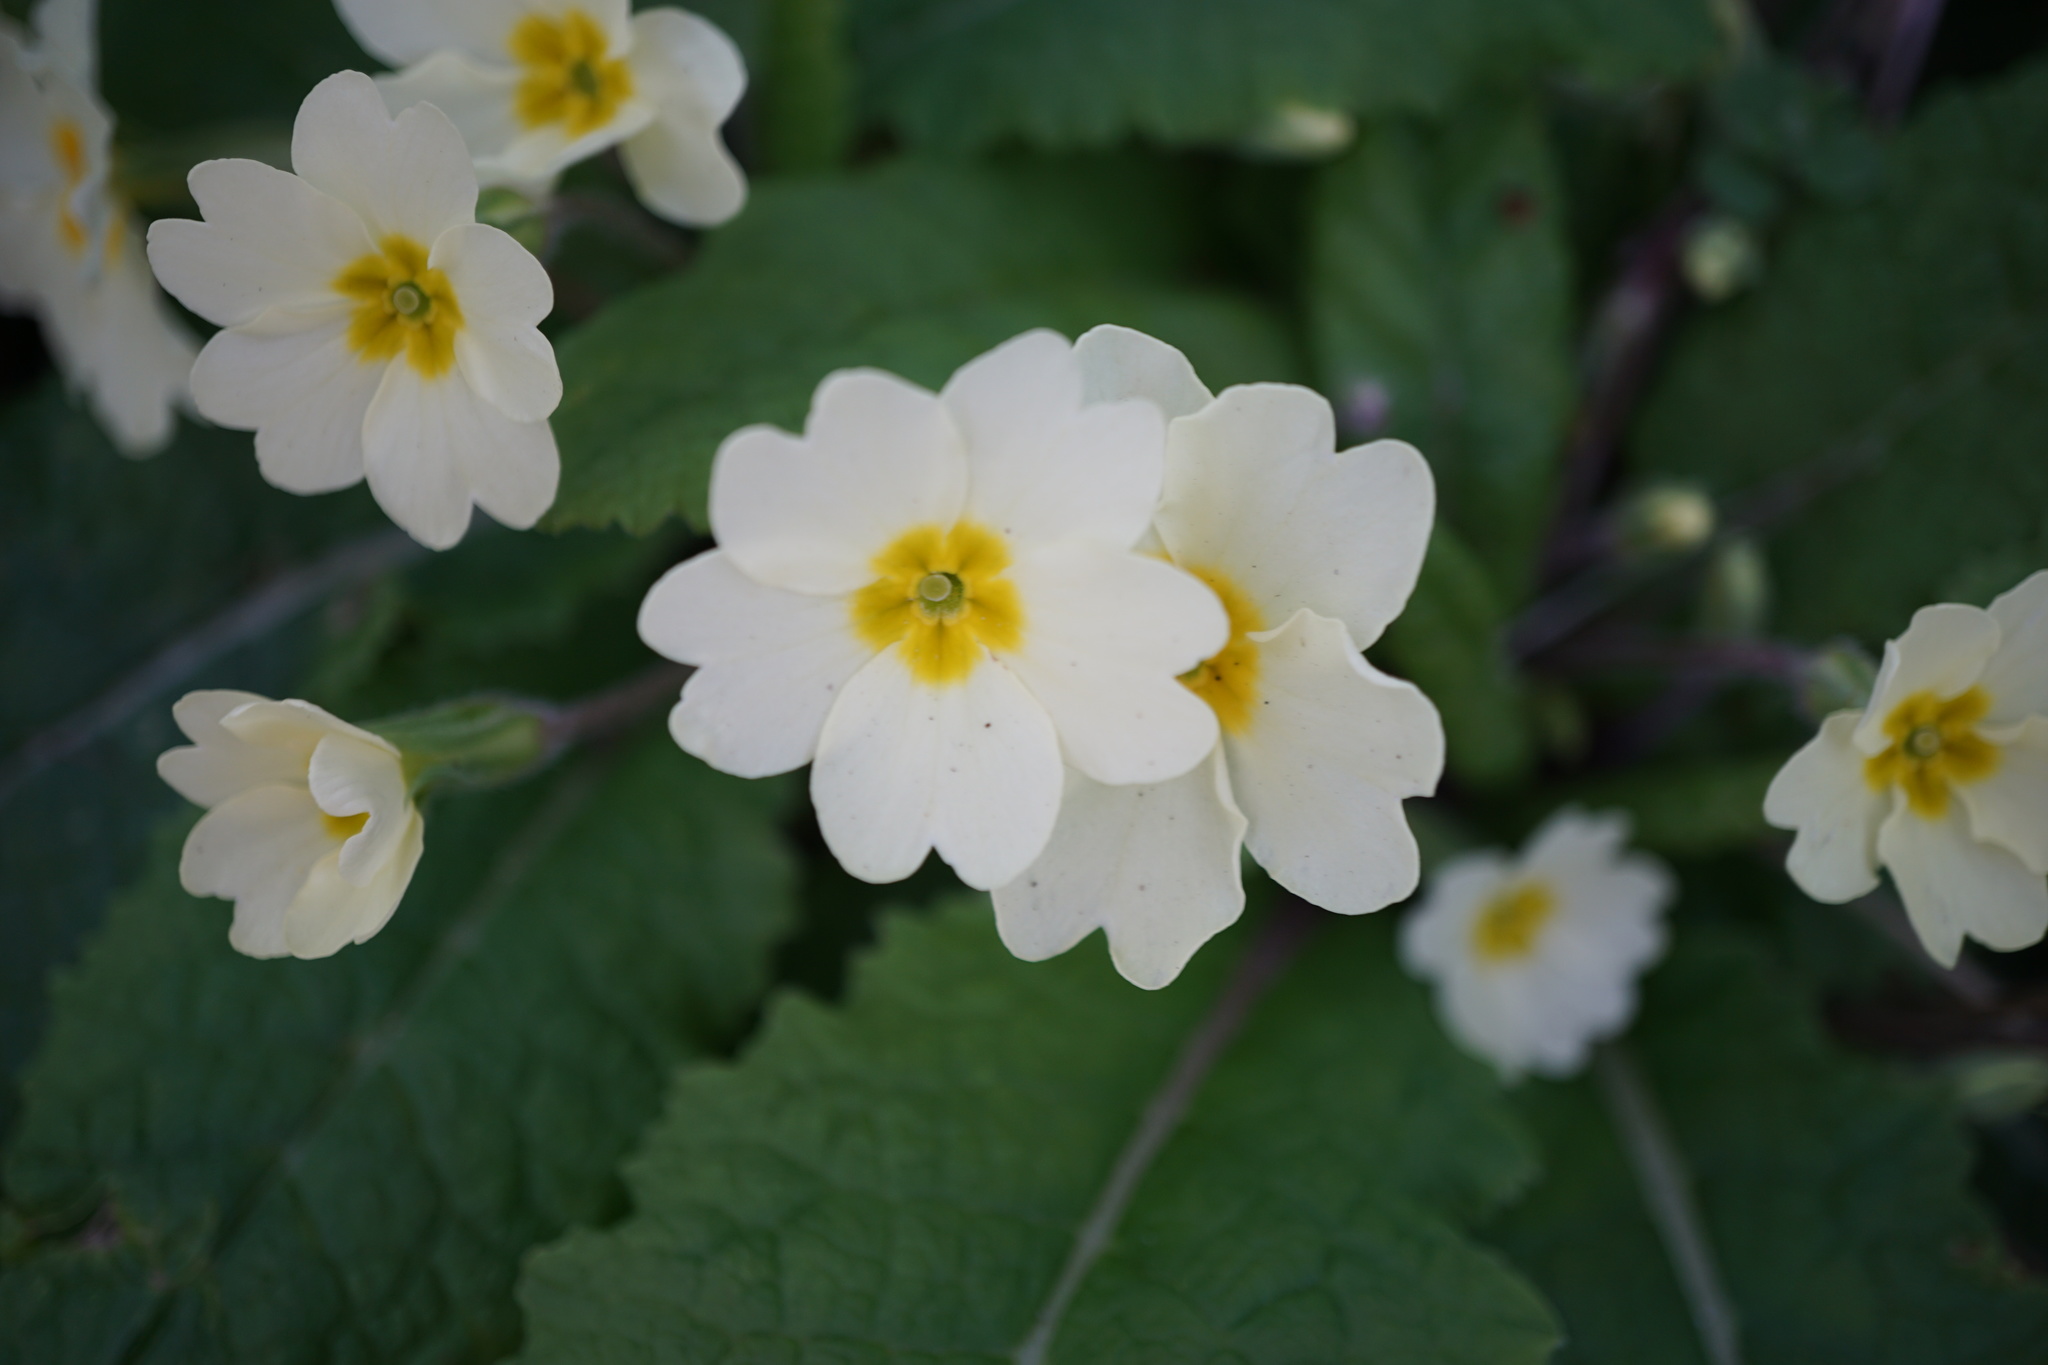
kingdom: Plantae
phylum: Tracheophyta
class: Magnoliopsida
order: Ericales
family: Primulaceae
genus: Primula
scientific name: Primula vulgaris
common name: Primrose
